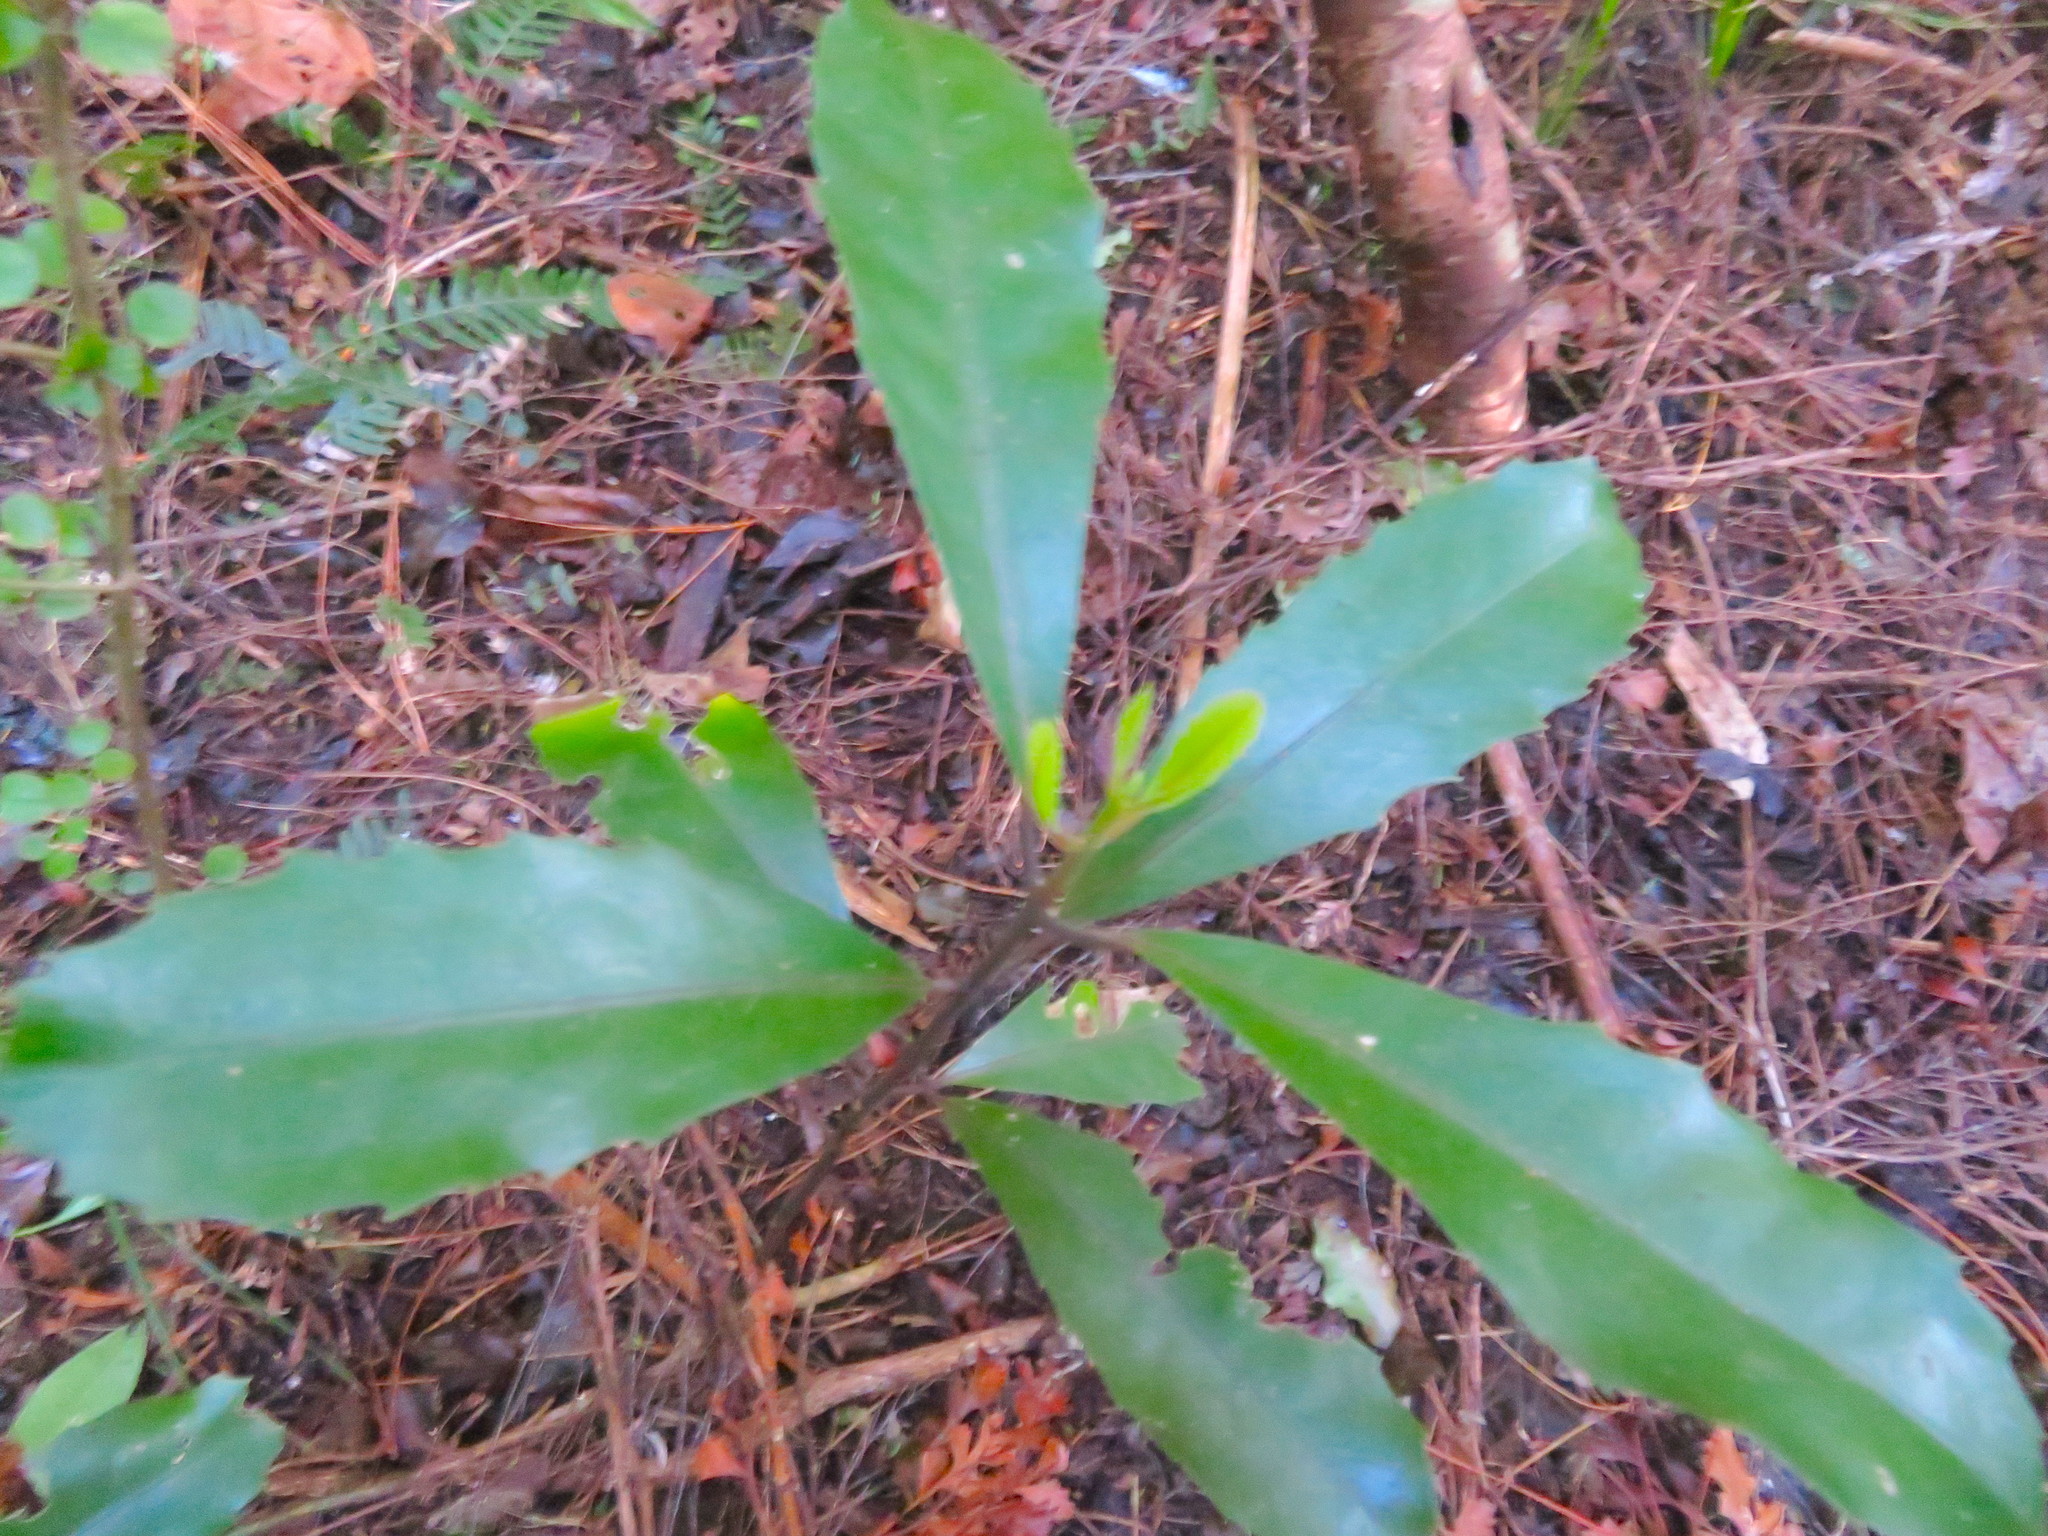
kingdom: Plantae
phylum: Tracheophyta
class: Magnoliopsida
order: Laurales
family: Monimiaceae
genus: Hedycarya
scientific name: Hedycarya arborea
